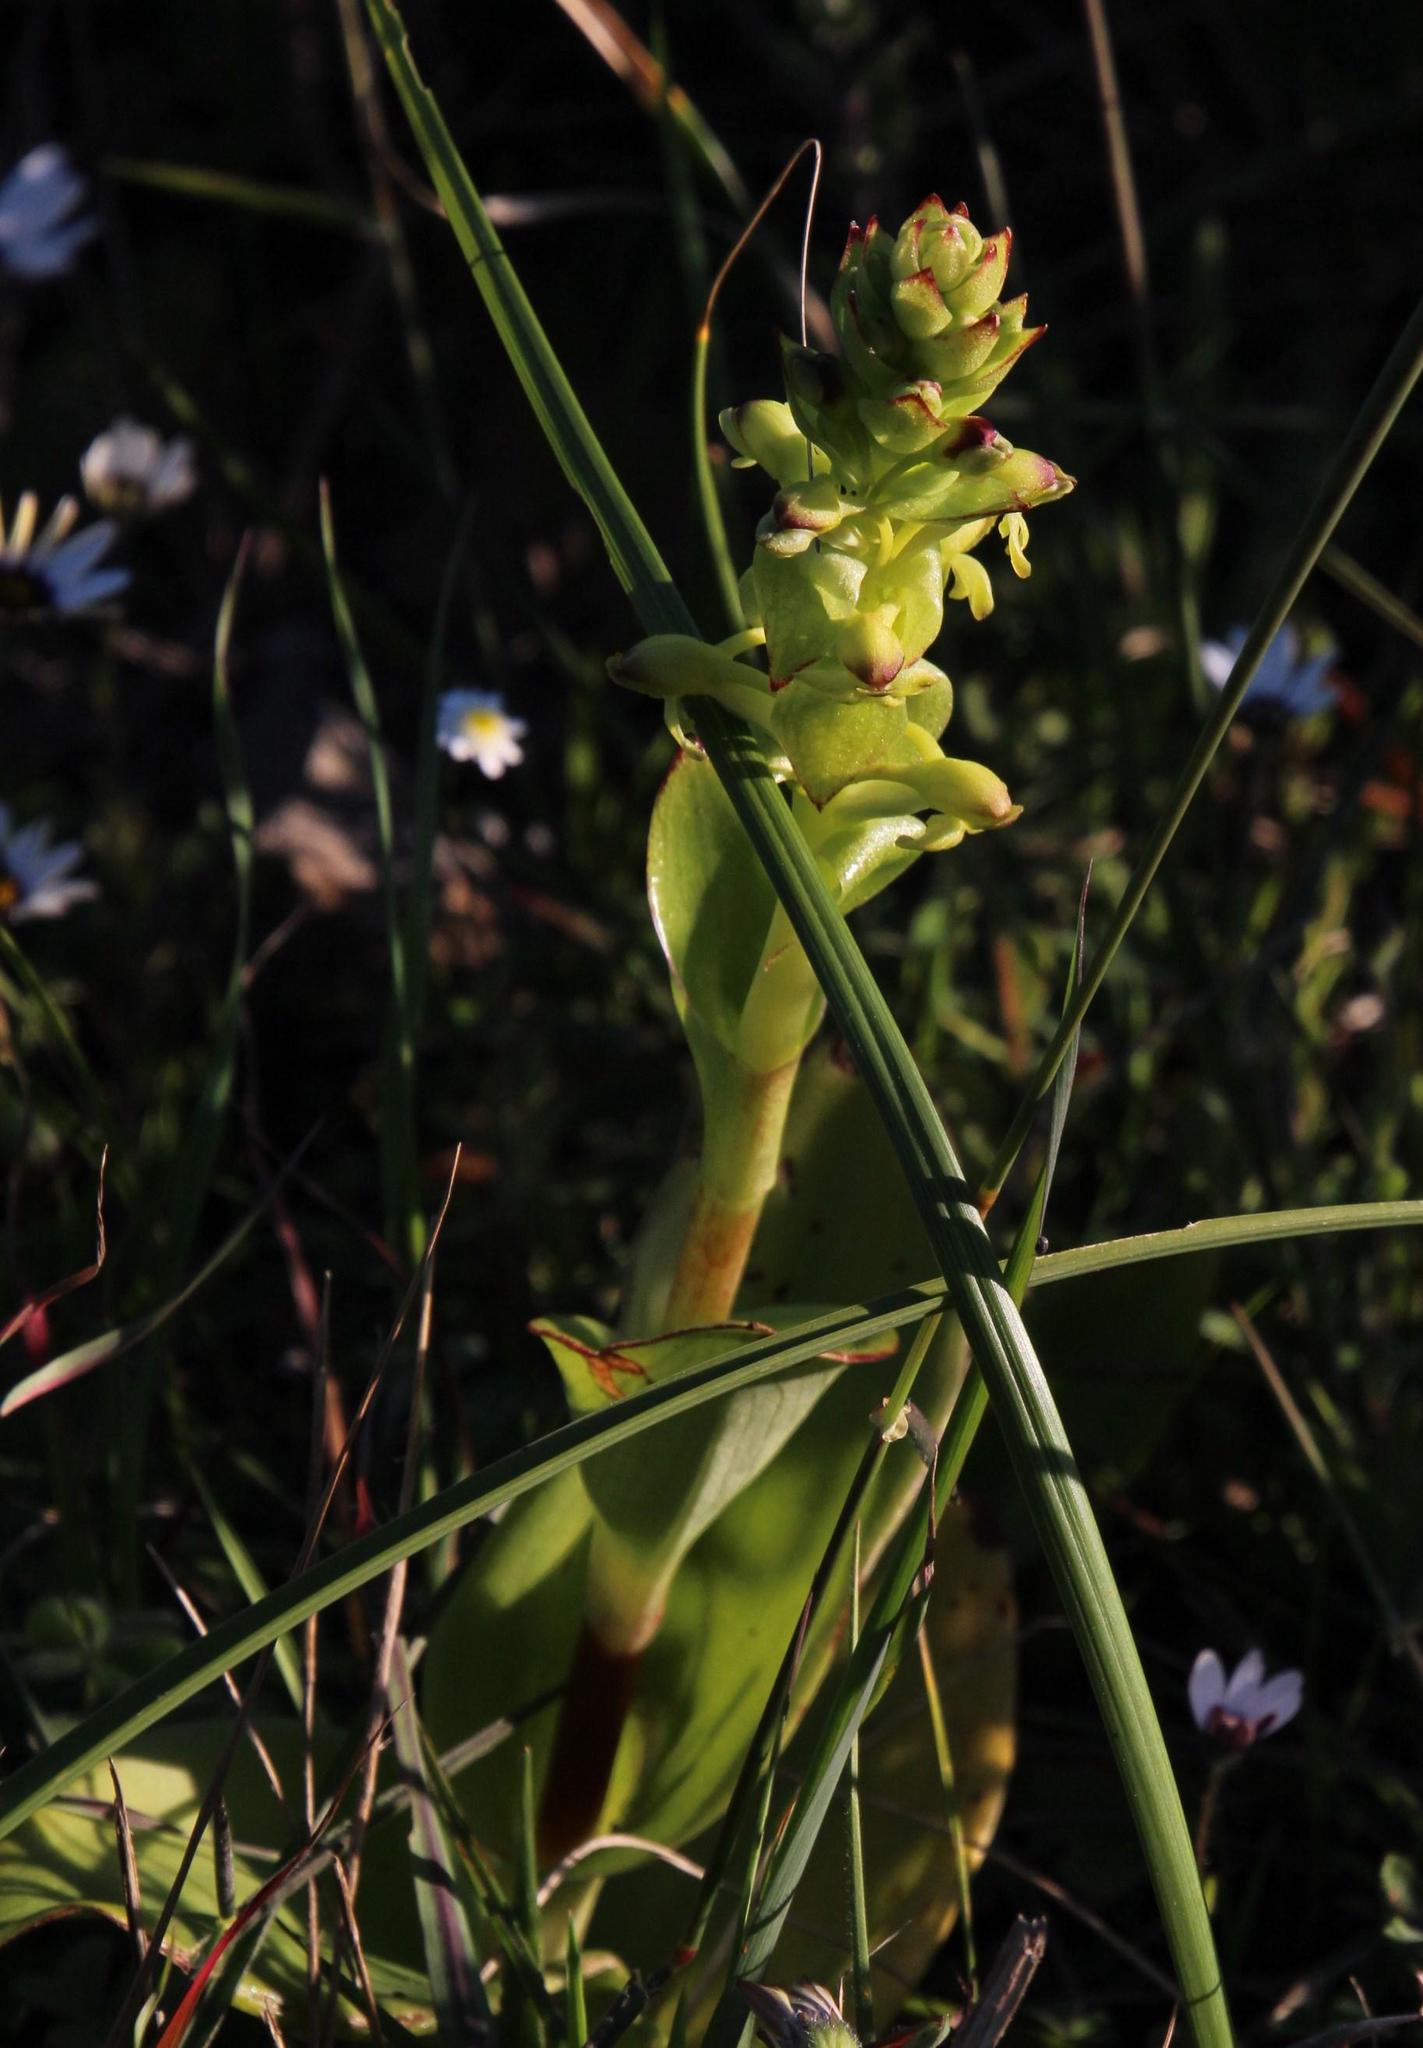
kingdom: Plantae
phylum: Tracheophyta
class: Liliopsida
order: Asparagales
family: Orchidaceae
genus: Satyrium
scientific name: Satyrium odorum
